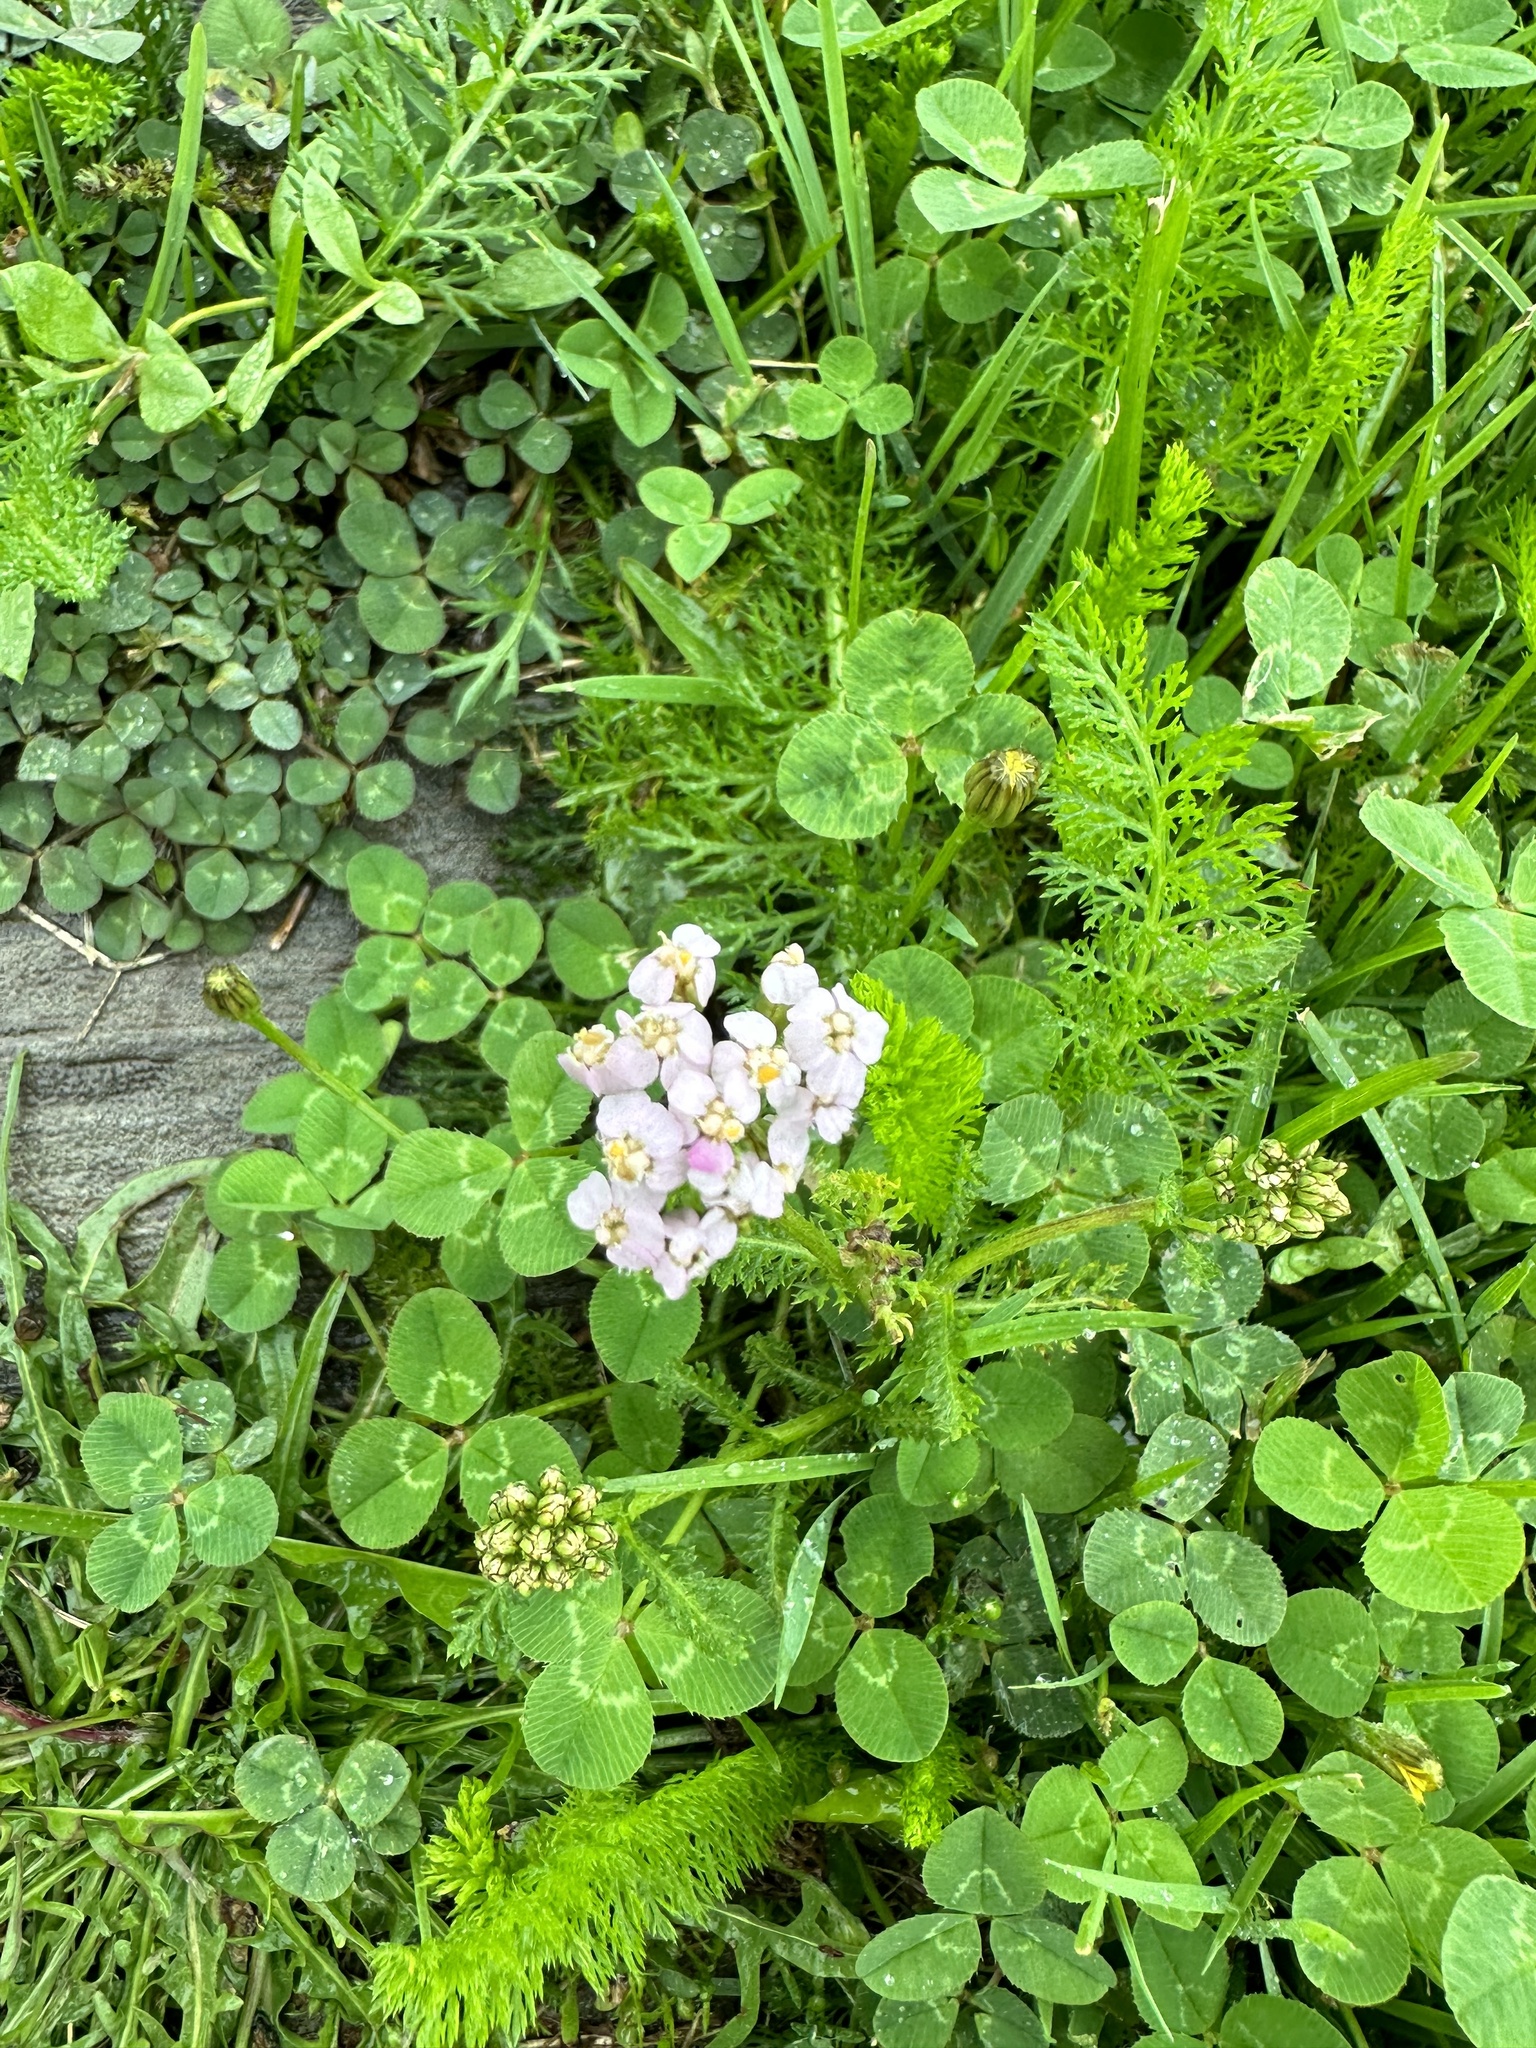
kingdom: Plantae
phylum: Tracheophyta
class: Magnoliopsida
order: Asterales
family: Asteraceae
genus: Achillea
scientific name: Achillea millefolium
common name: Yarrow
